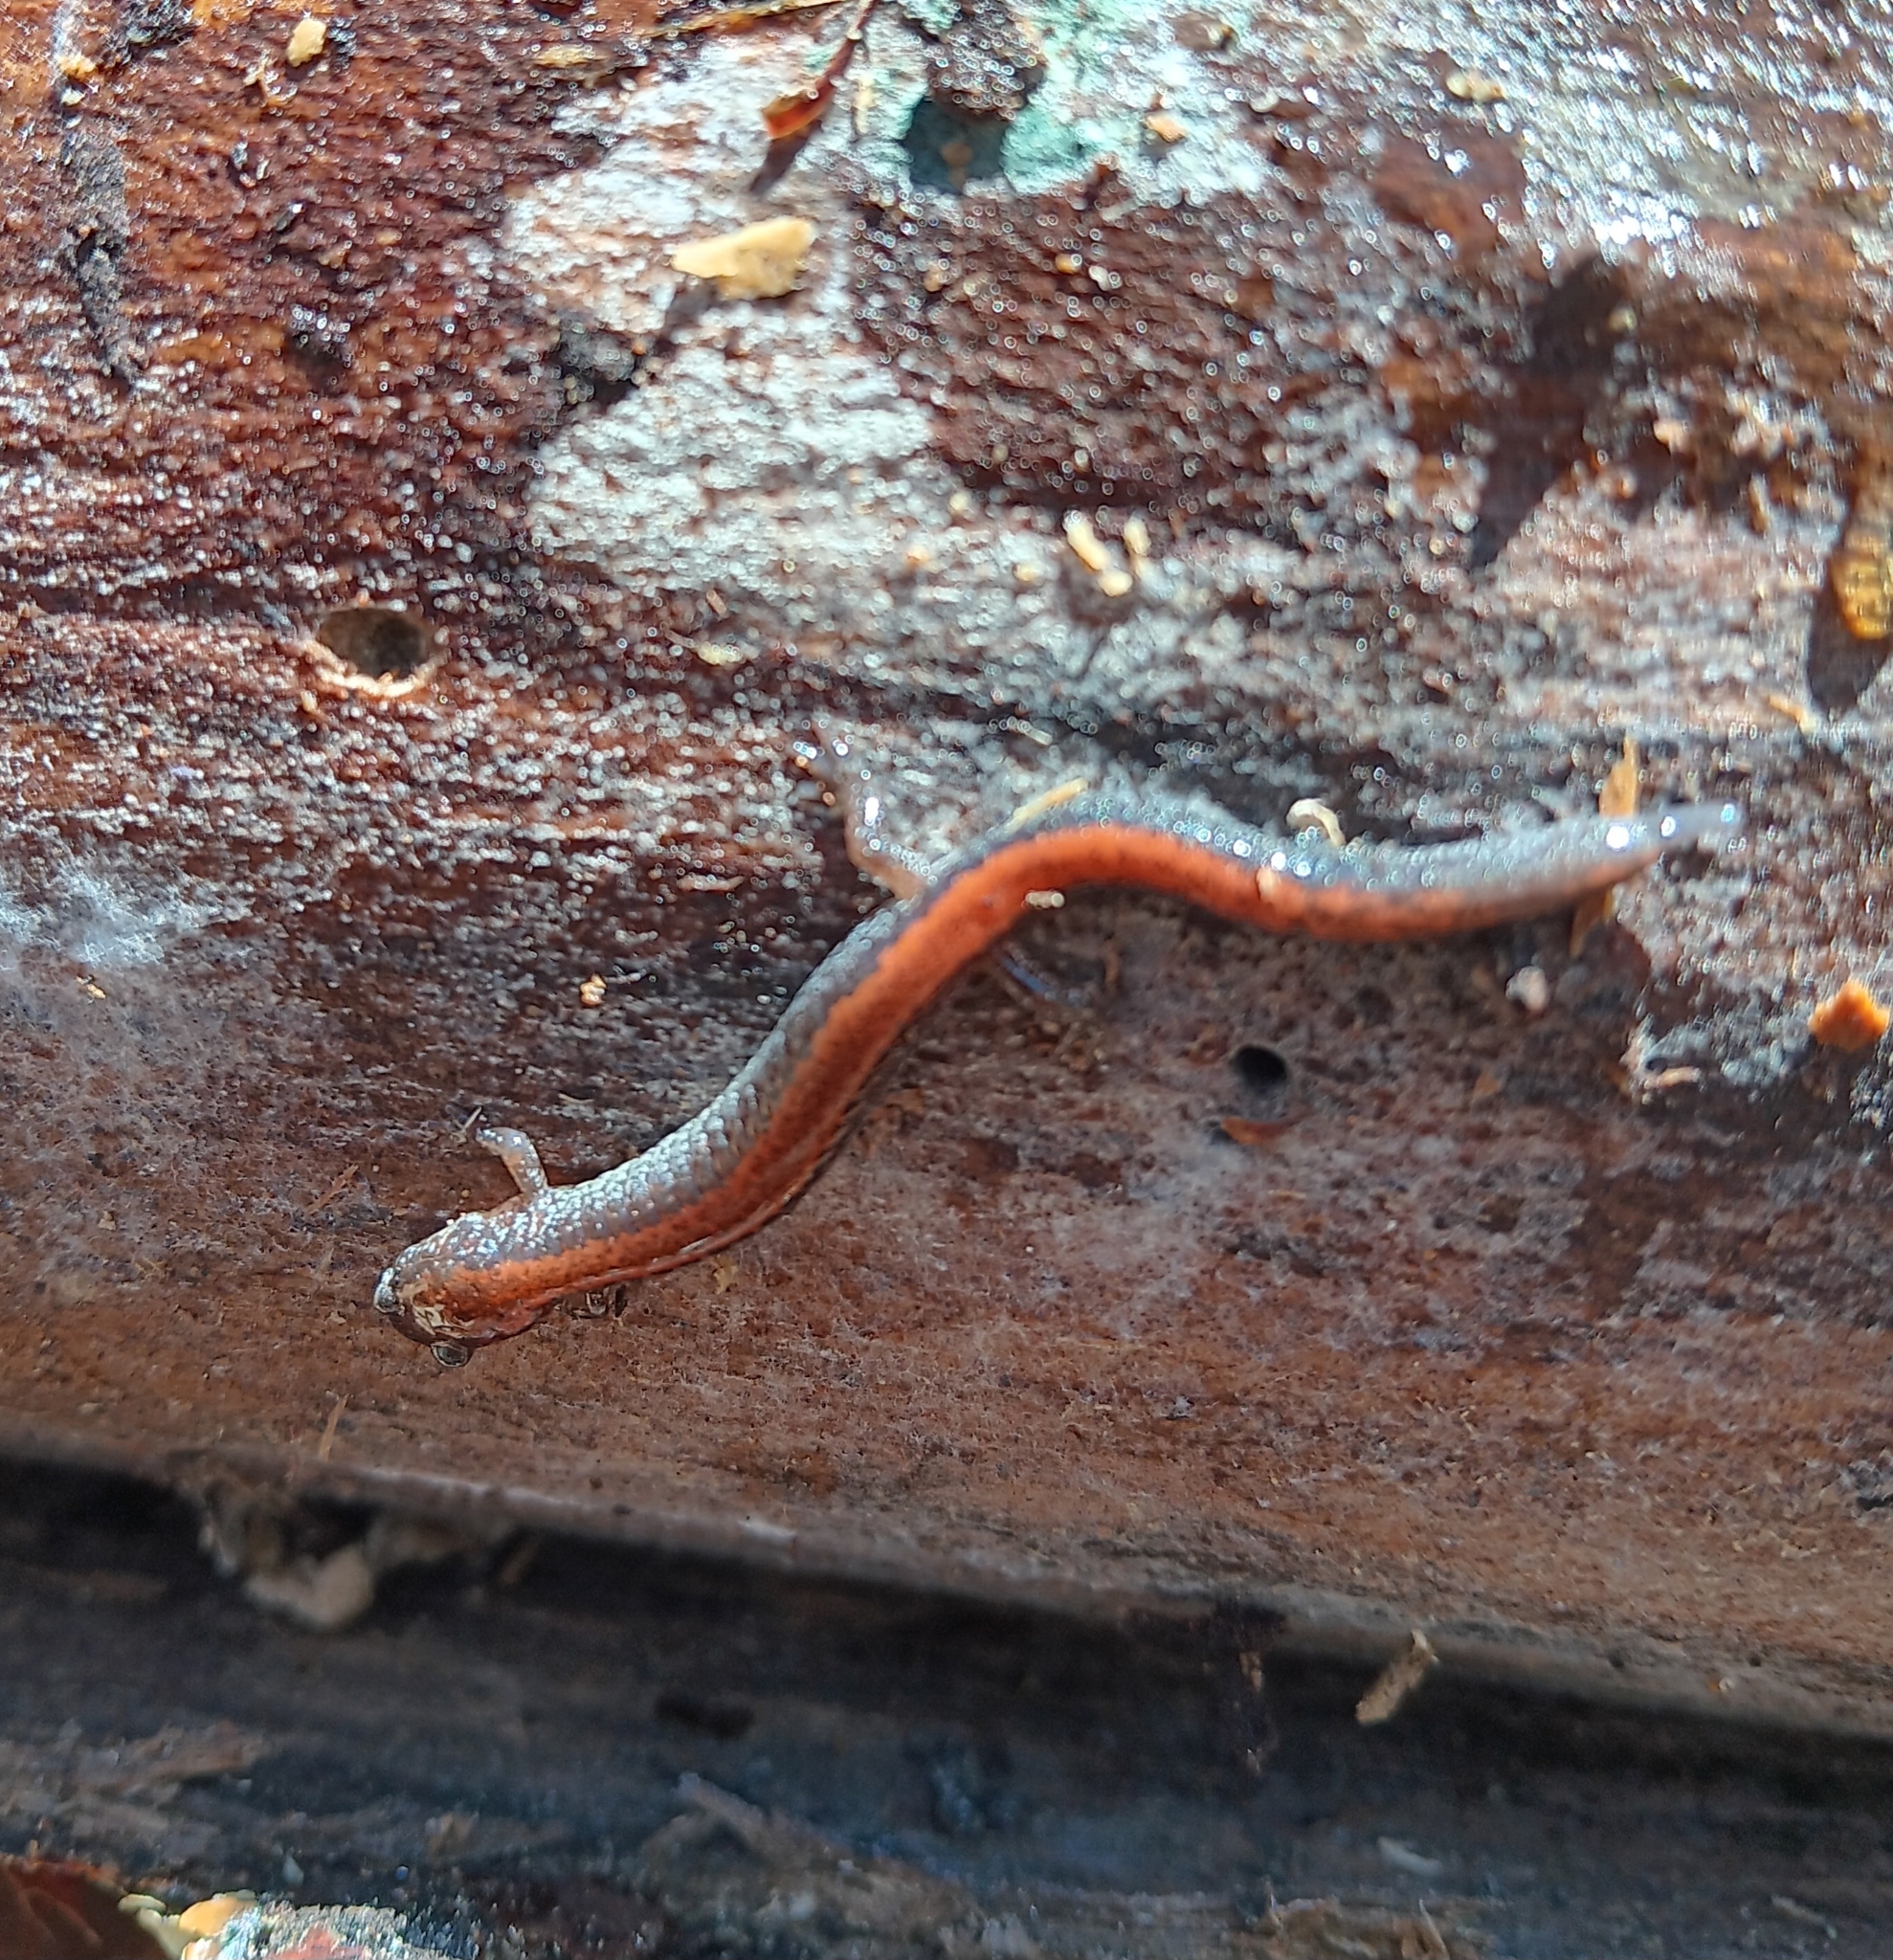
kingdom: Animalia
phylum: Chordata
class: Amphibia
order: Caudata
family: Plethodontidae
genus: Plethodon
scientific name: Plethodon cinereus
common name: Redback salamander
